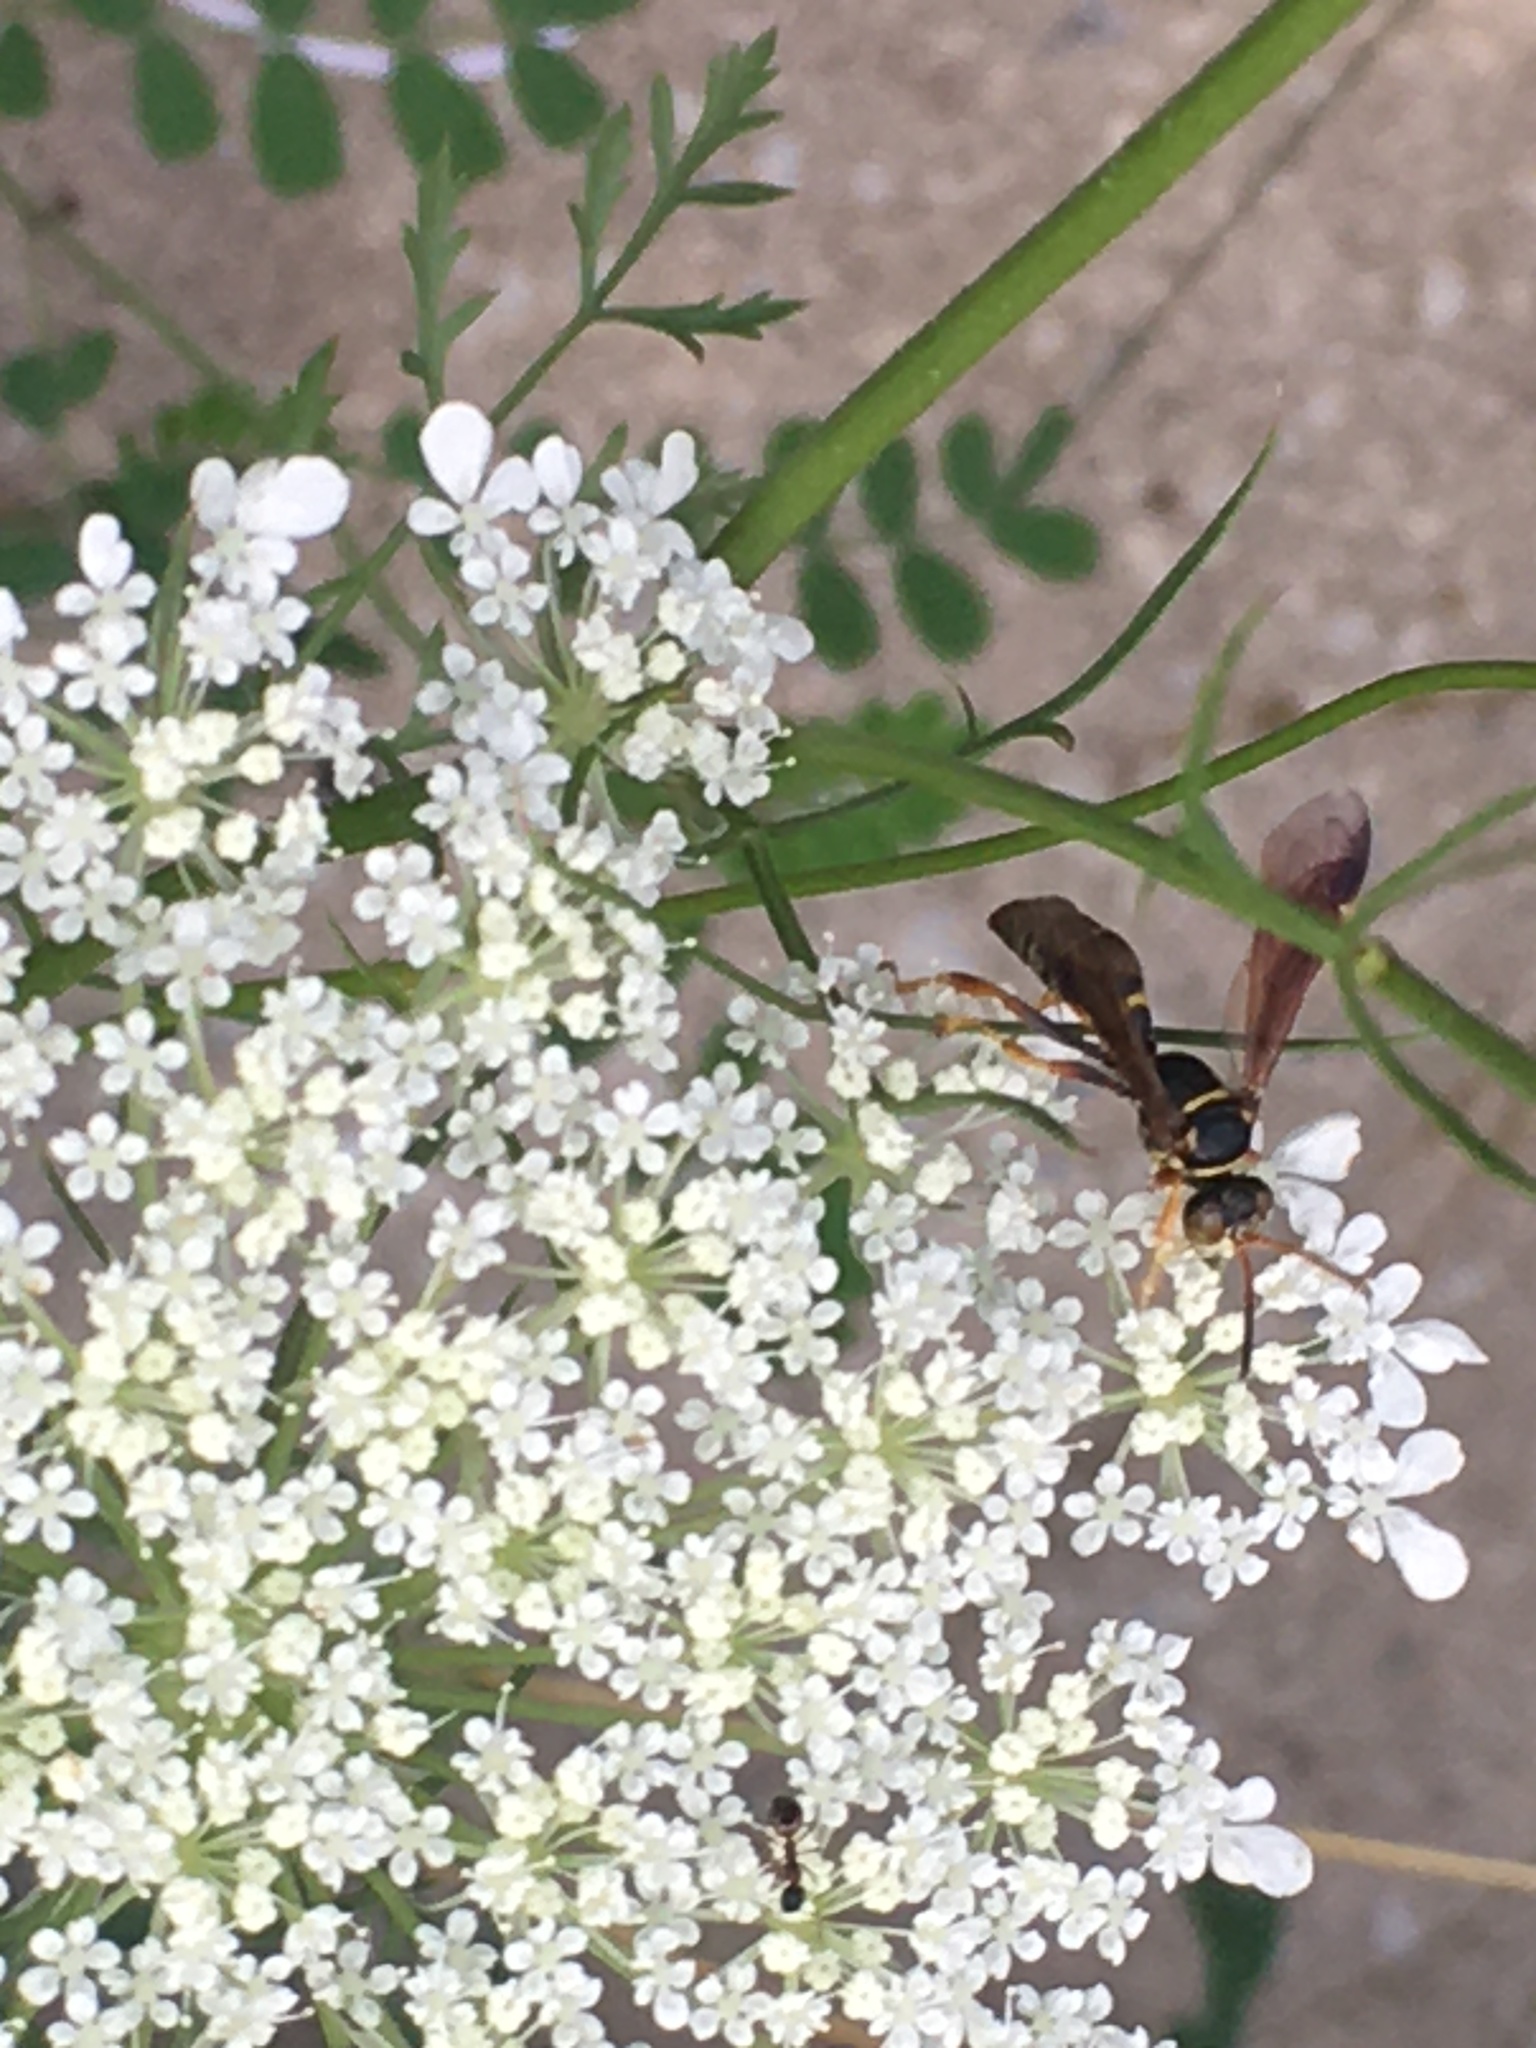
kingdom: Animalia
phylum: Arthropoda
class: Insecta
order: Hymenoptera
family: Crabronidae
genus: Saygorytes
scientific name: Saygorytes phaleratus
